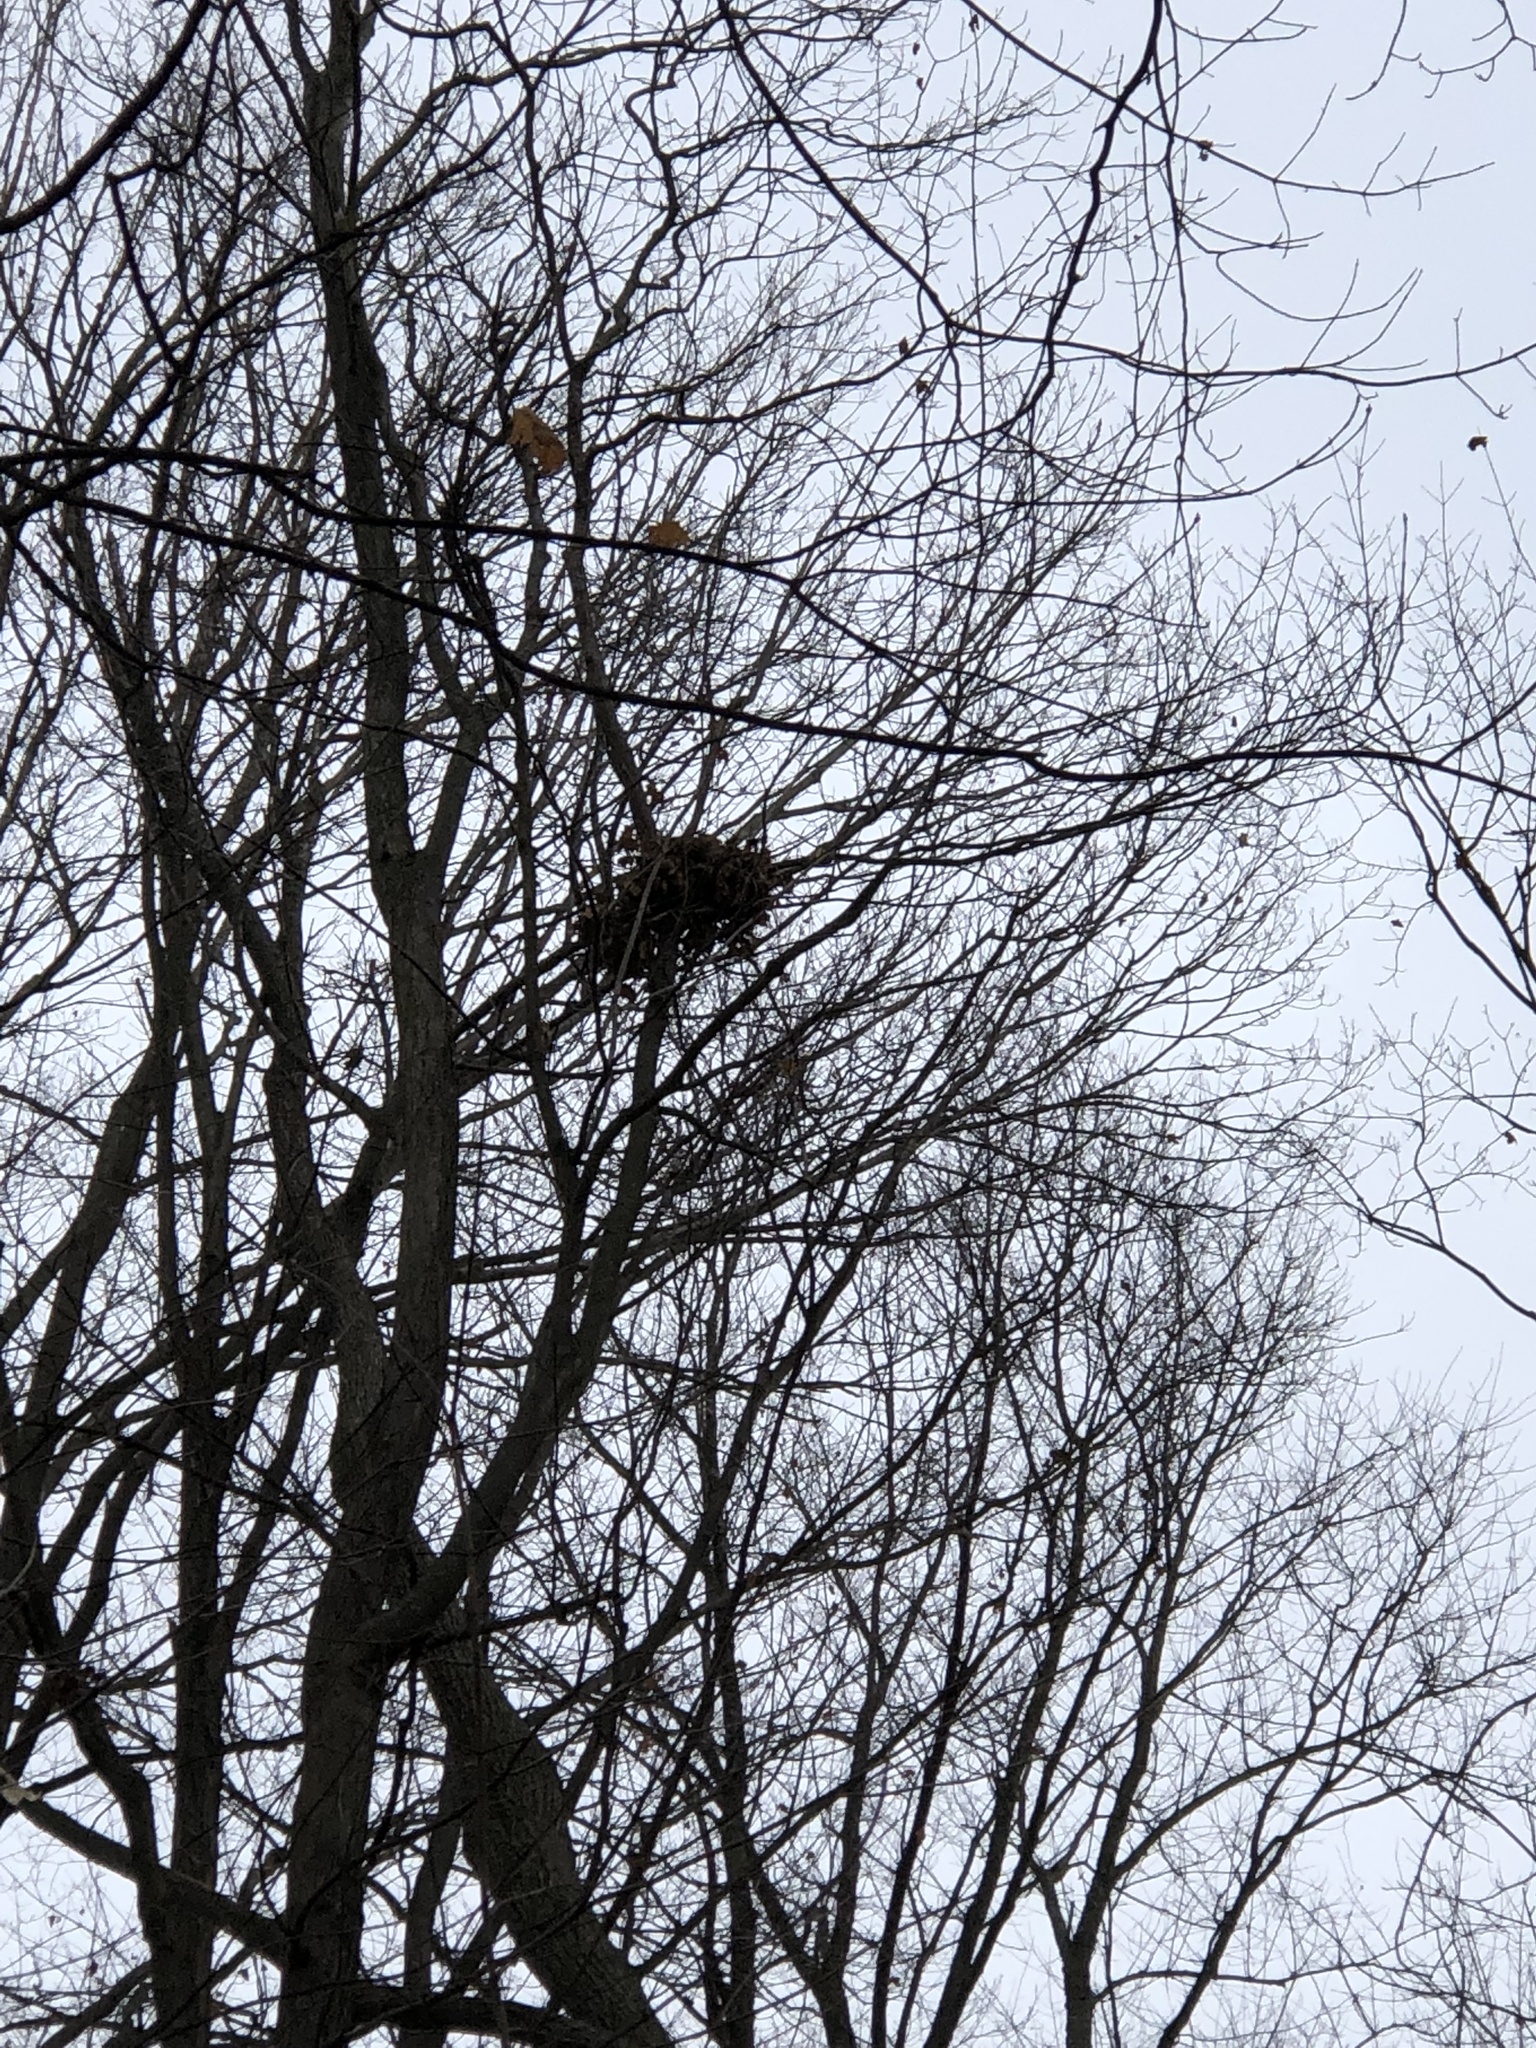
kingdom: Animalia
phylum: Chordata
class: Mammalia
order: Rodentia
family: Sciuridae
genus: Sciurus
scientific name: Sciurus carolinensis
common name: Eastern gray squirrel
